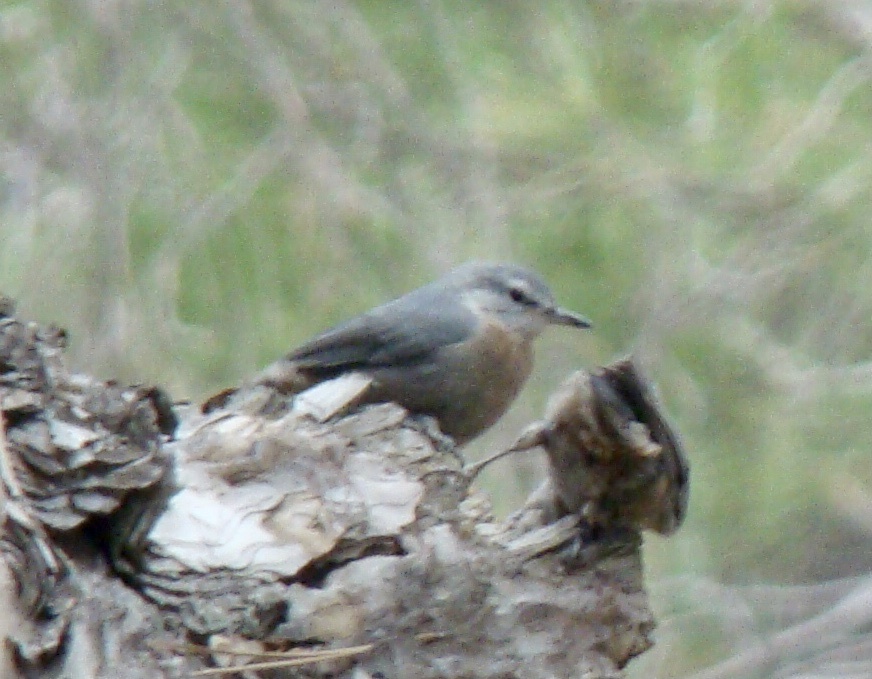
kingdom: Animalia
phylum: Chordata
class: Aves
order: Passeriformes
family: Sittidae
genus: Sitta
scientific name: Sitta krueperi
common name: Krüper's nuthatch
